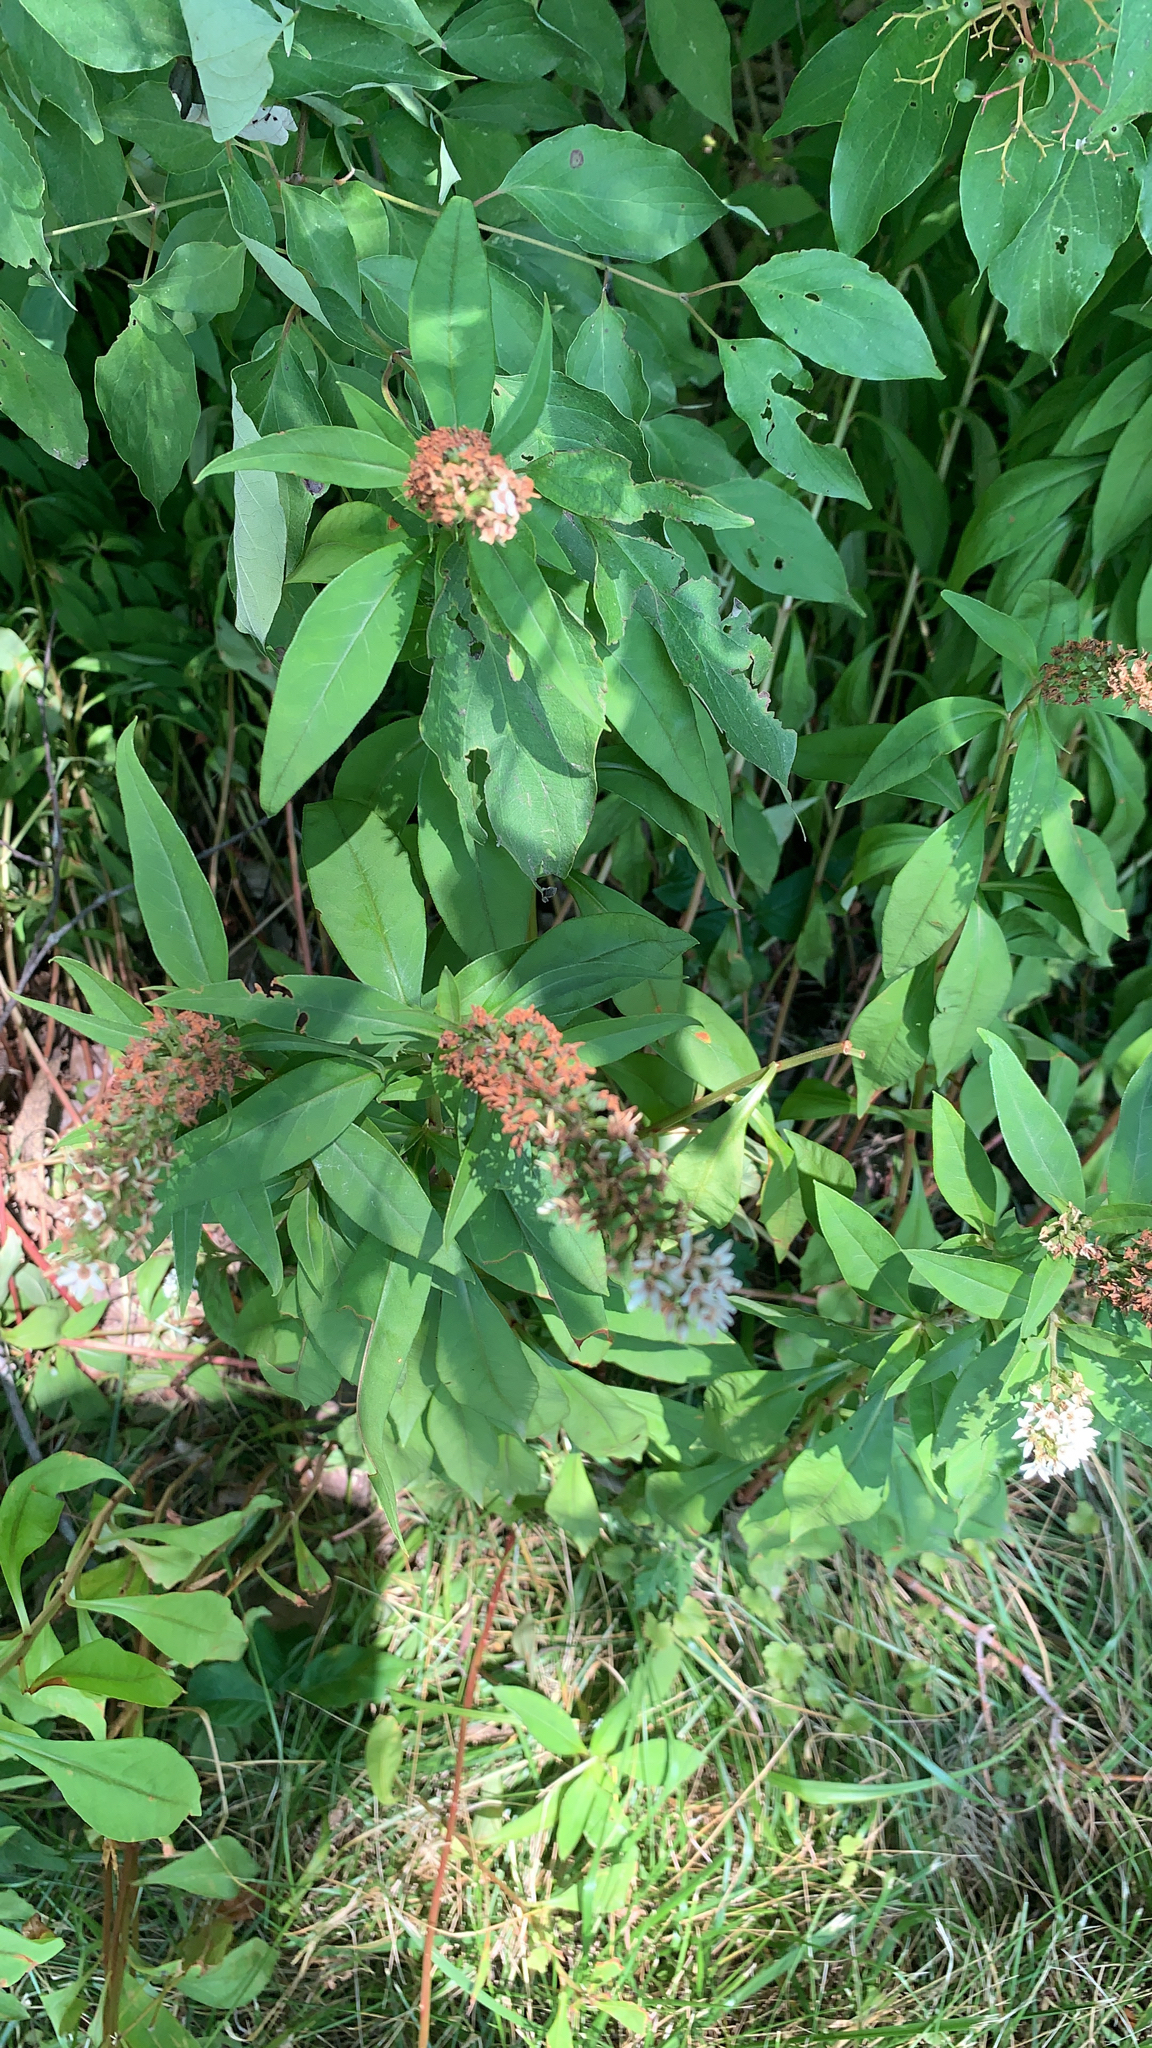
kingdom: Plantae
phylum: Tracheophyta
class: Magnoliopsida
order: Ericales
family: Primulaceae
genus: Lysimachia
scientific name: Lysimachia clethroides
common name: Gooseneck loosestrife
